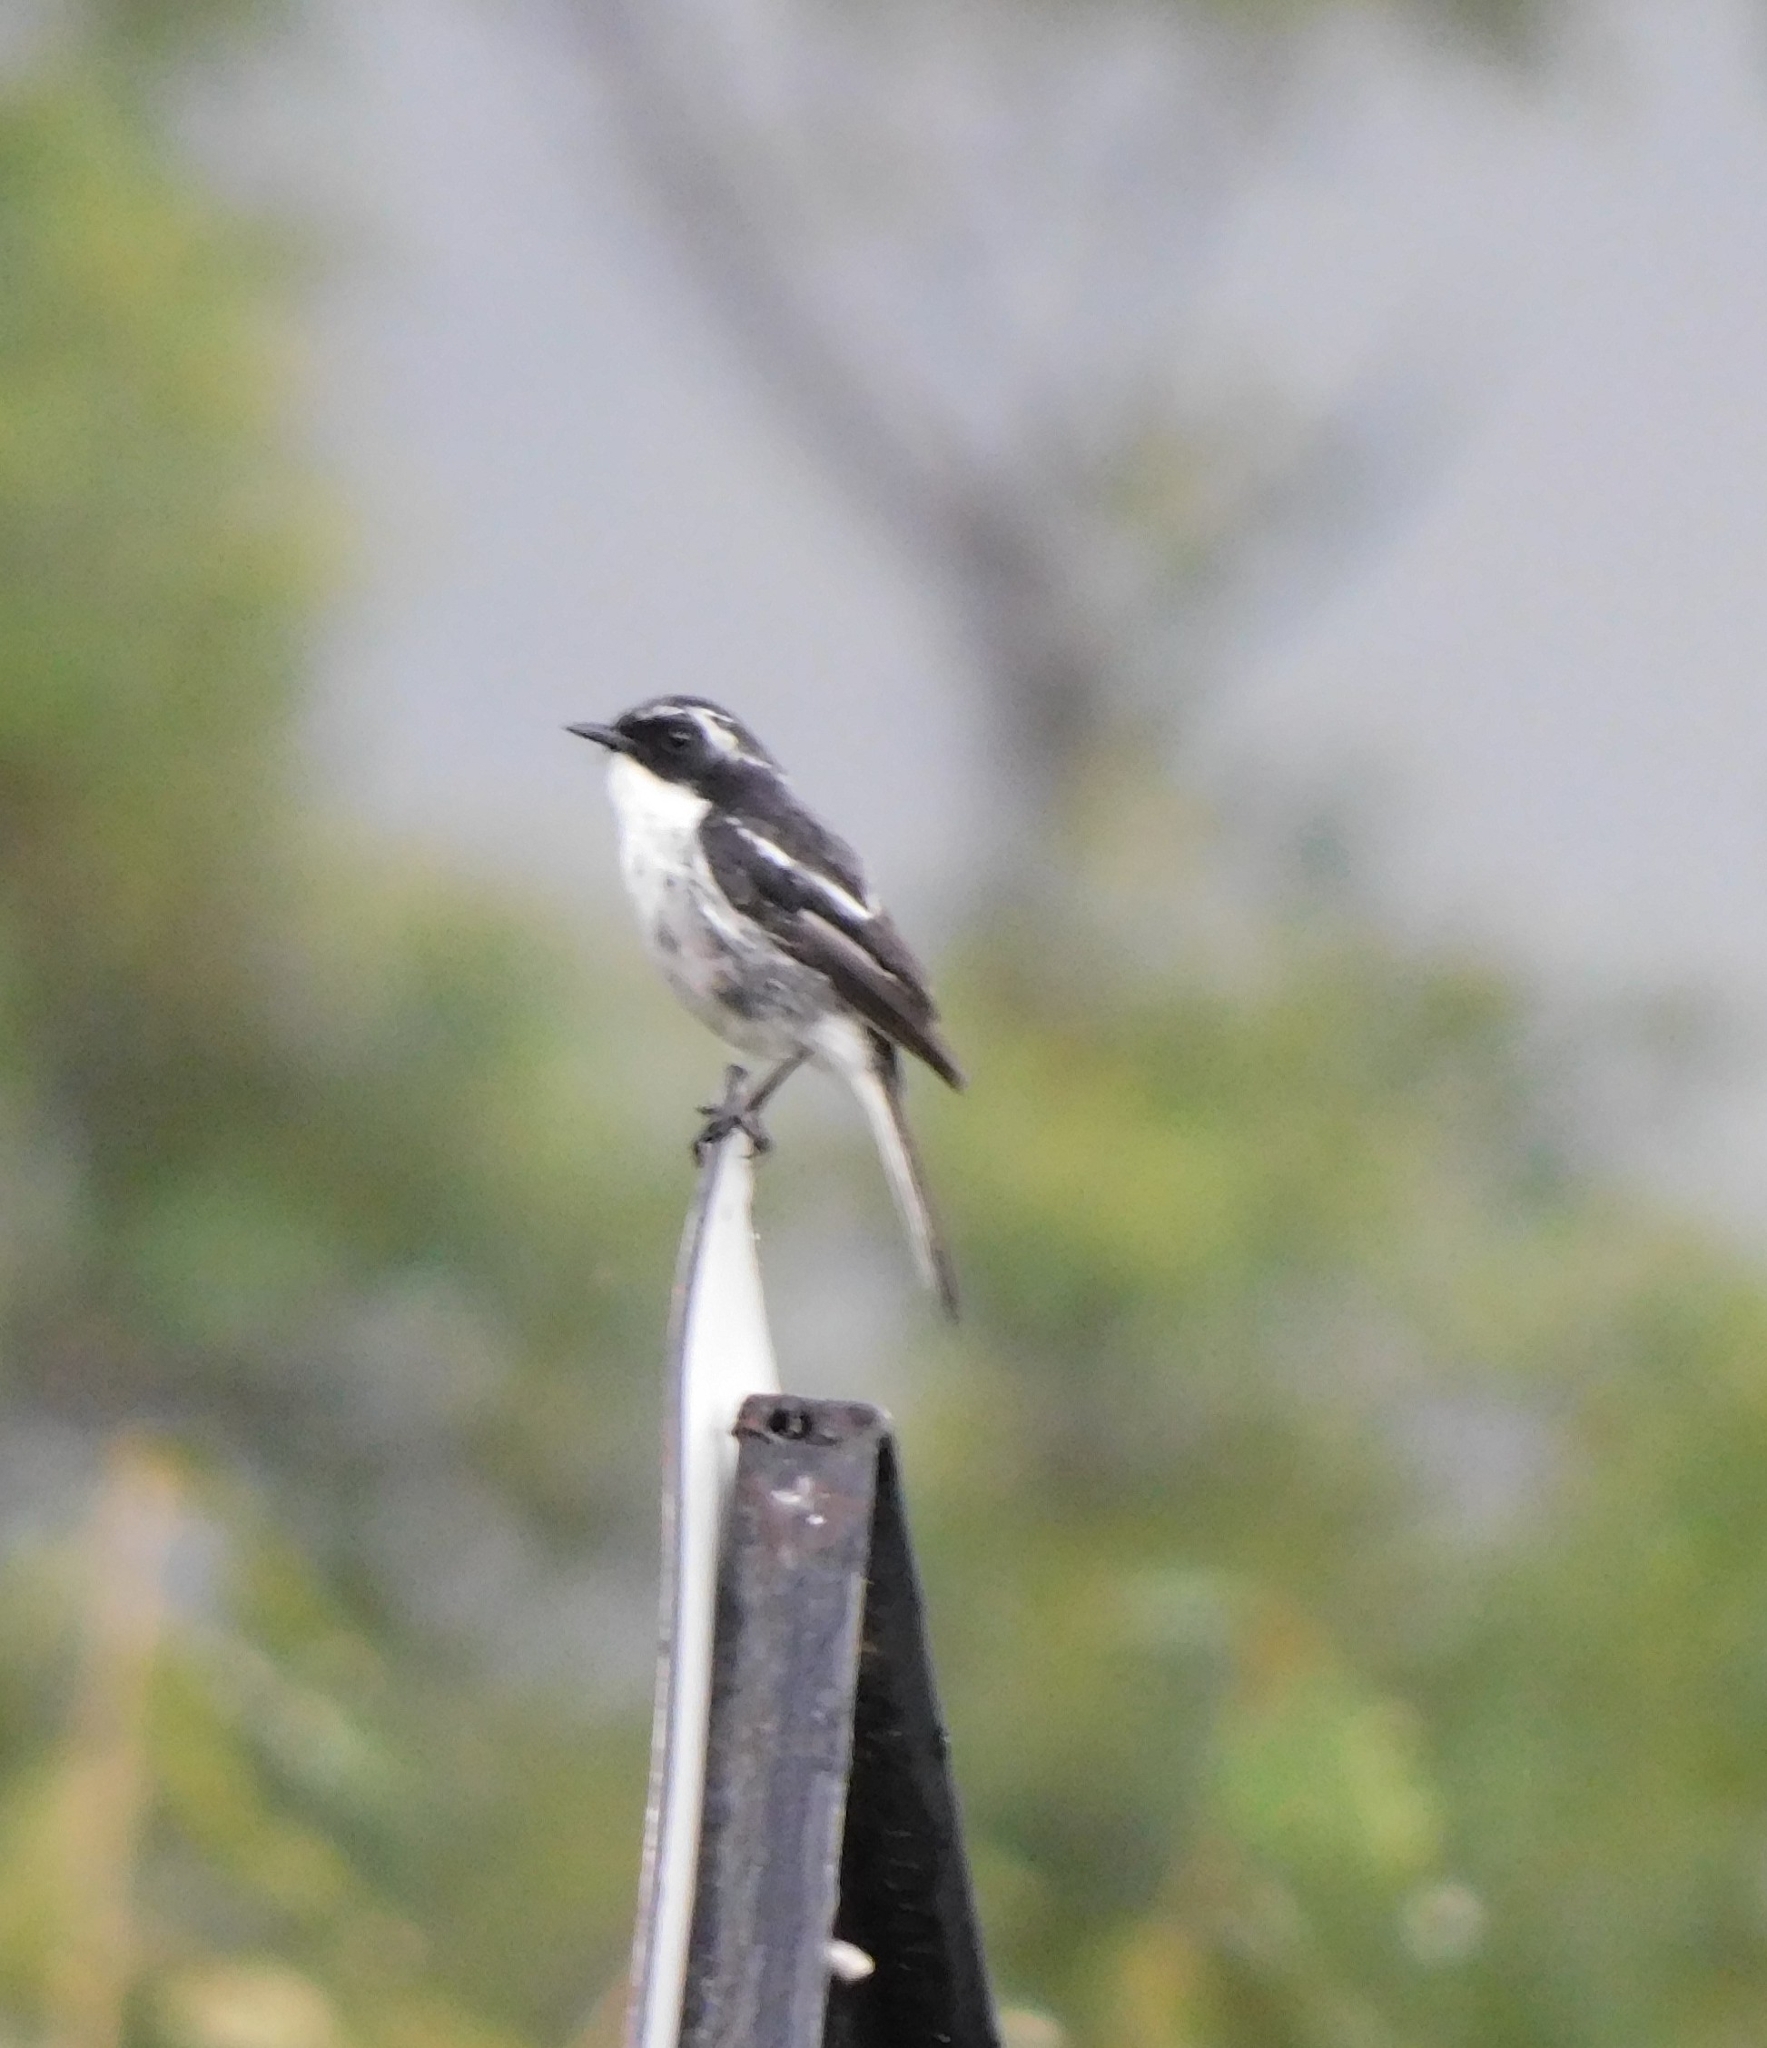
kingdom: Animalia
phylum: Chordata
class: Aves
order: Passeriformes
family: Muscicapidae
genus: Saxicola
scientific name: Saxicola ferreus
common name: Grey bush chat
